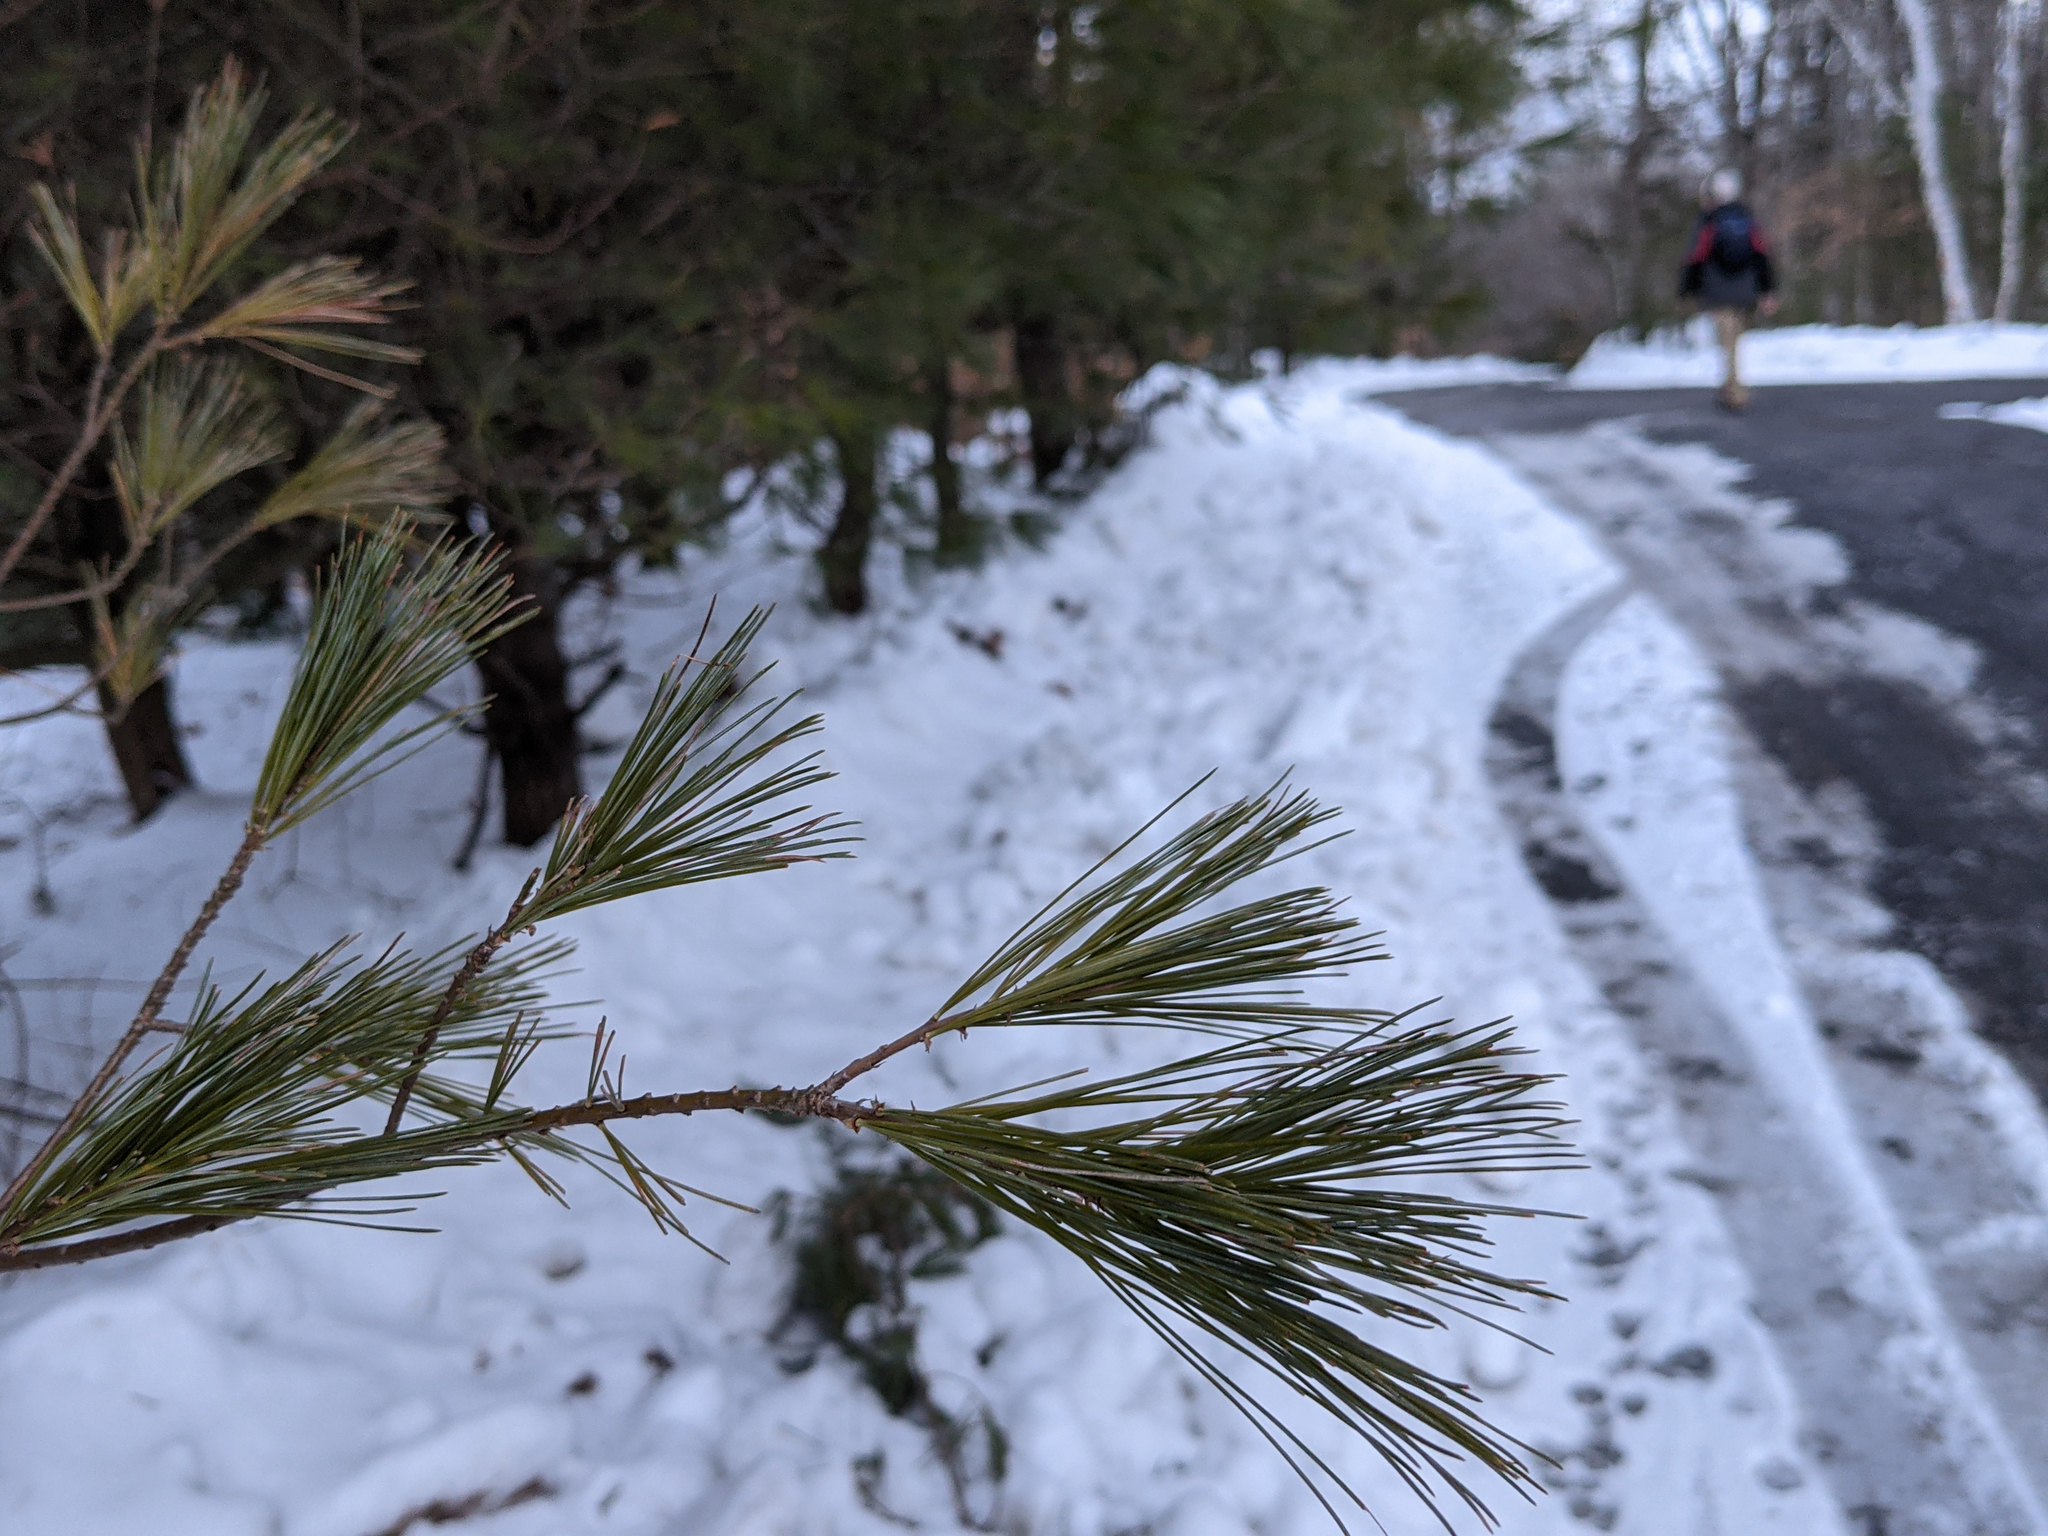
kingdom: Plantae
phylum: Tracheophyta
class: Pinopsida
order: Pinales
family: Pinaceae
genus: Pinus
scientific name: Pinus strobus
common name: Weymouth pine
